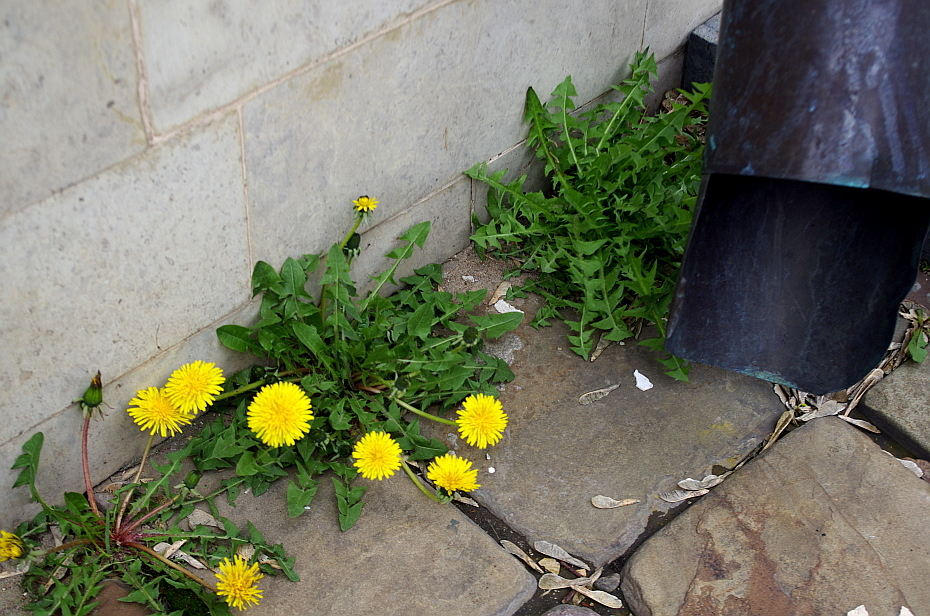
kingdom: Plantae
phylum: Tracheophyta
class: Magnoliopsida
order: Asterales
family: Asteraceae
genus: Taraxacum
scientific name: Taraxacum officinale
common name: Common dandelion
